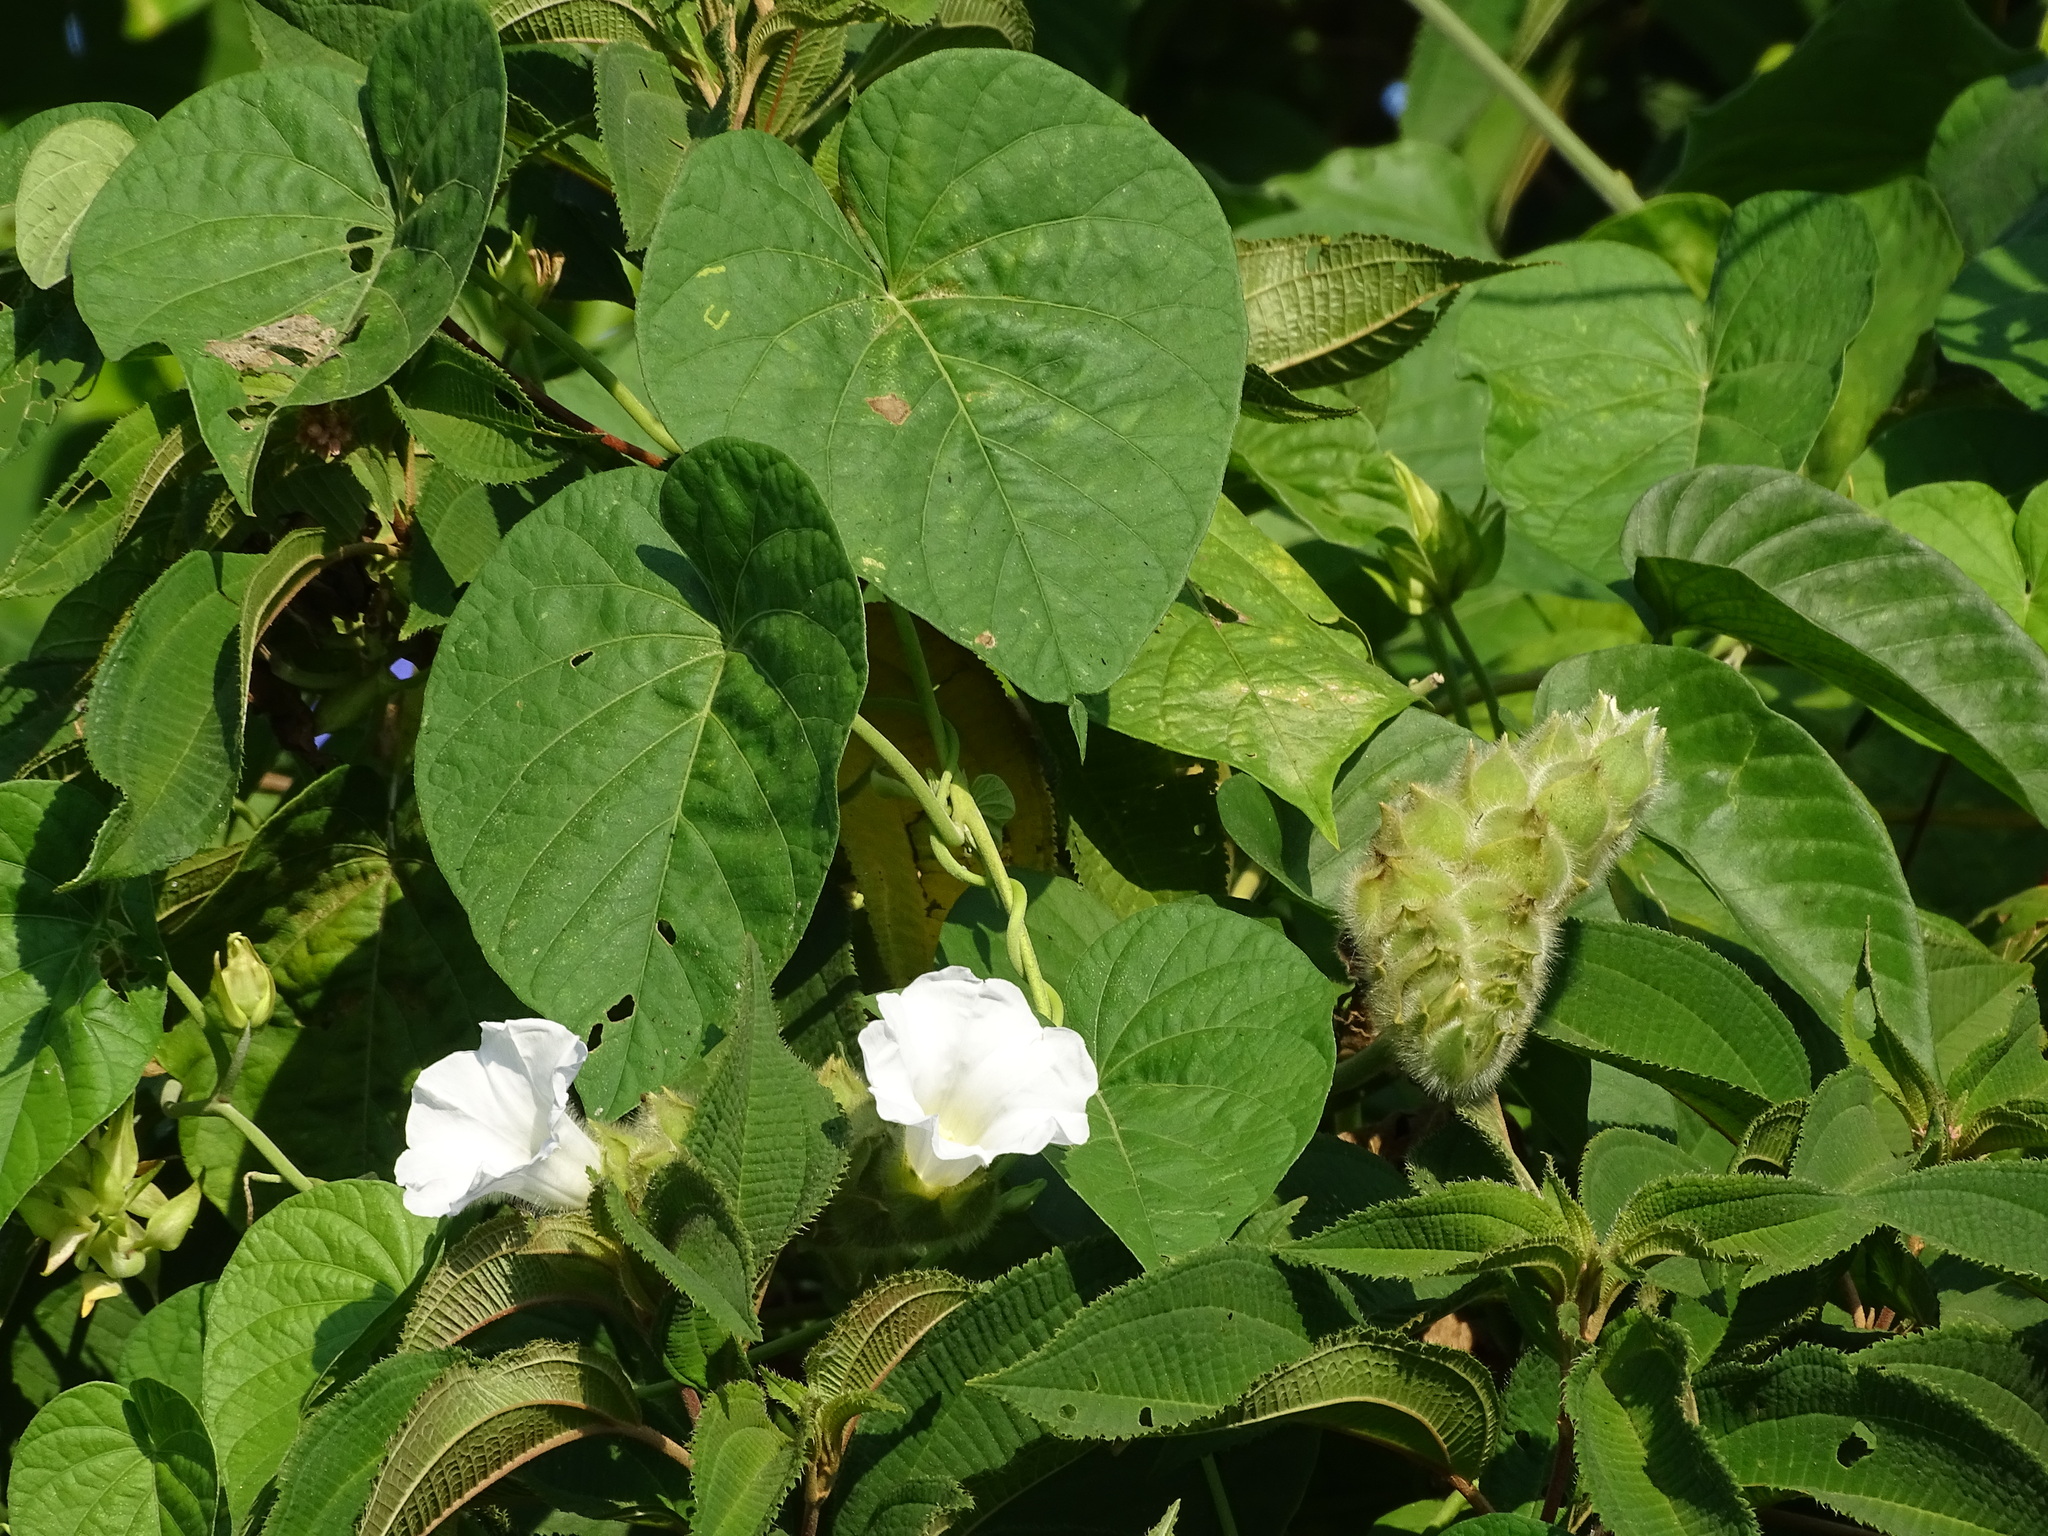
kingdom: Plantae
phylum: Tracheophyta
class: Magnoliopsida
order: Solanales
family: Convolvulaceae
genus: Odonellia
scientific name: Odonellia hirtiflora
